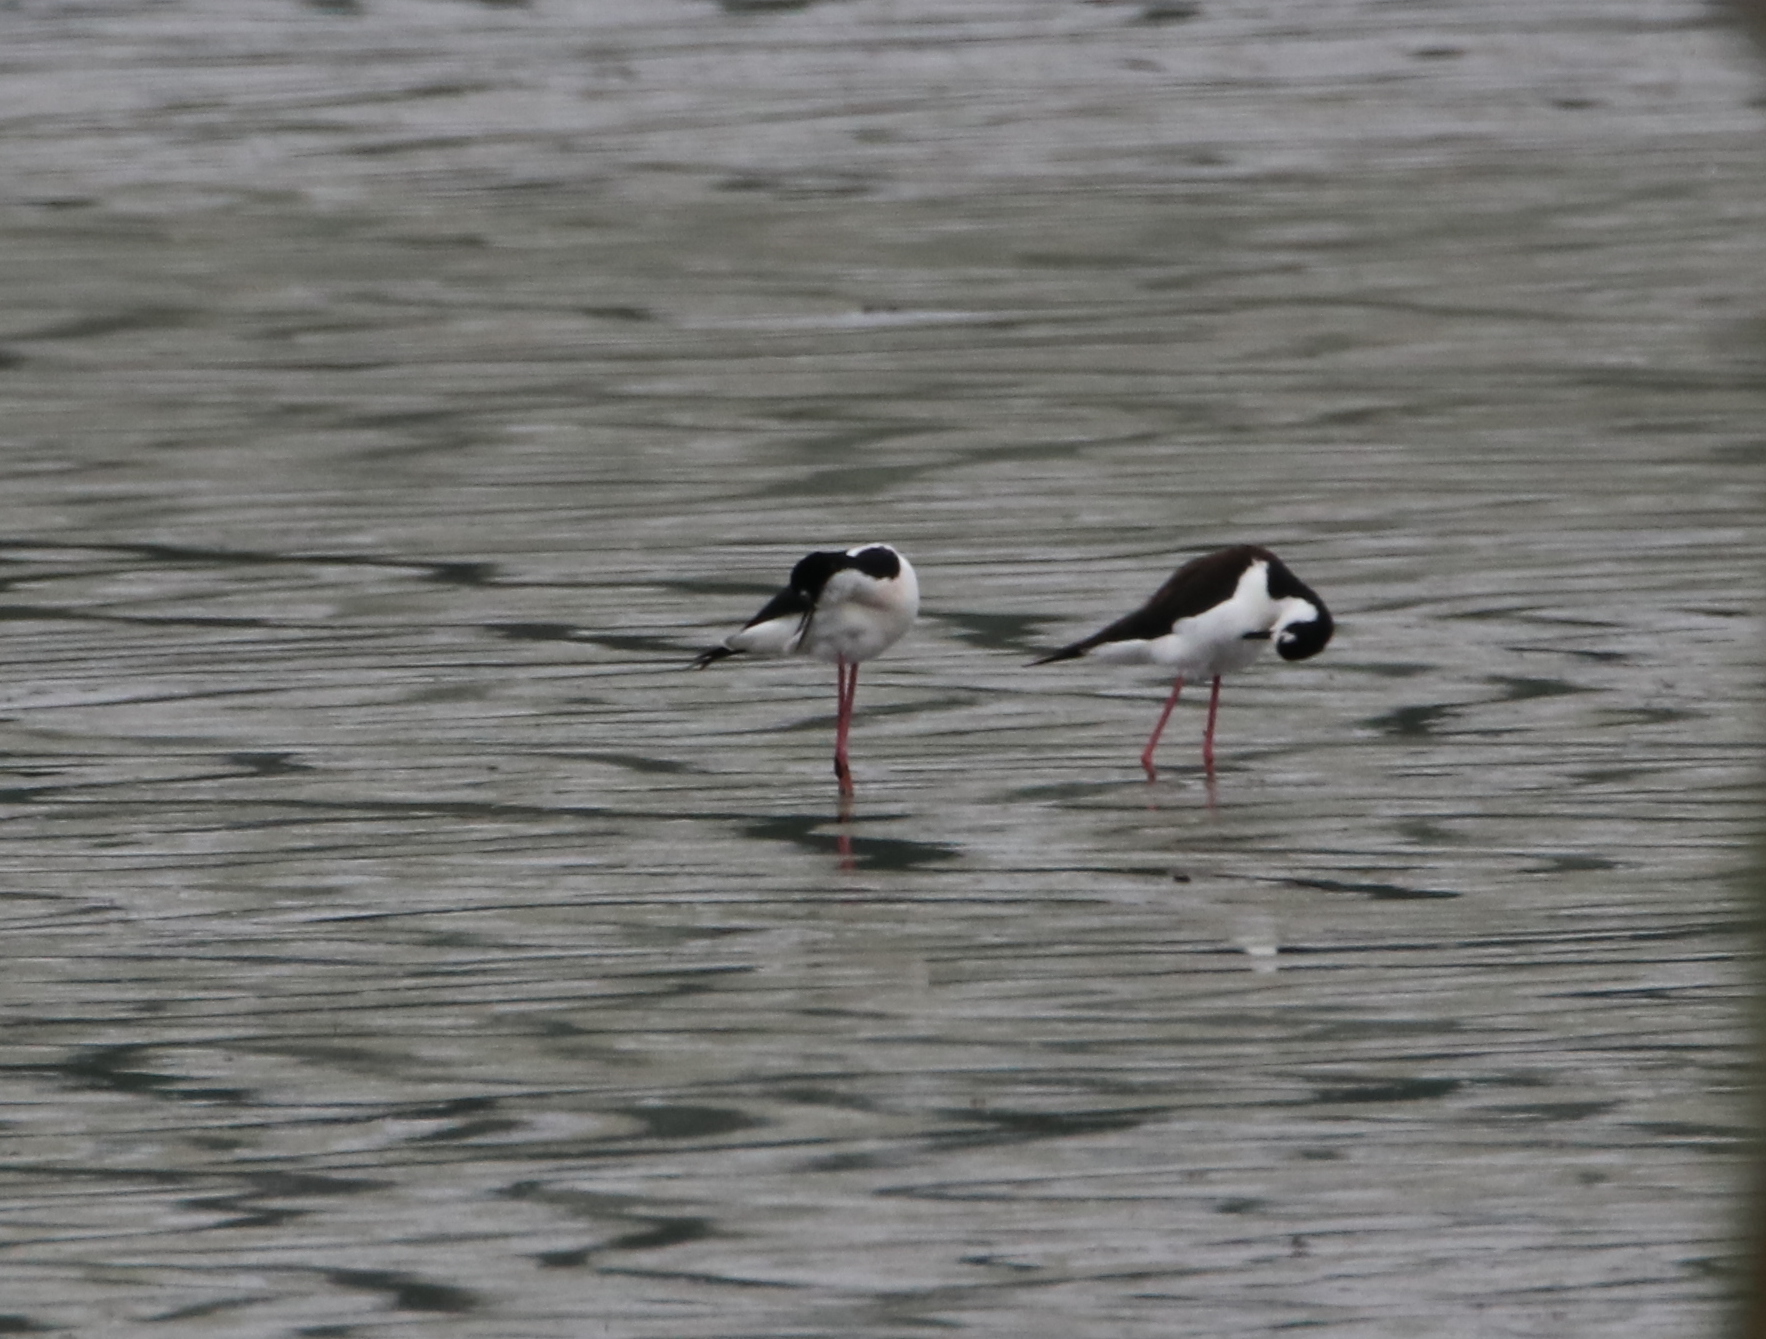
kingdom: Animalia
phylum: Chordata
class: Aves
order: Charadriiformes
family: Recurvirostridae
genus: Himantopus
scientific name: Himantopus mexicanus
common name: Black-necked stilt
